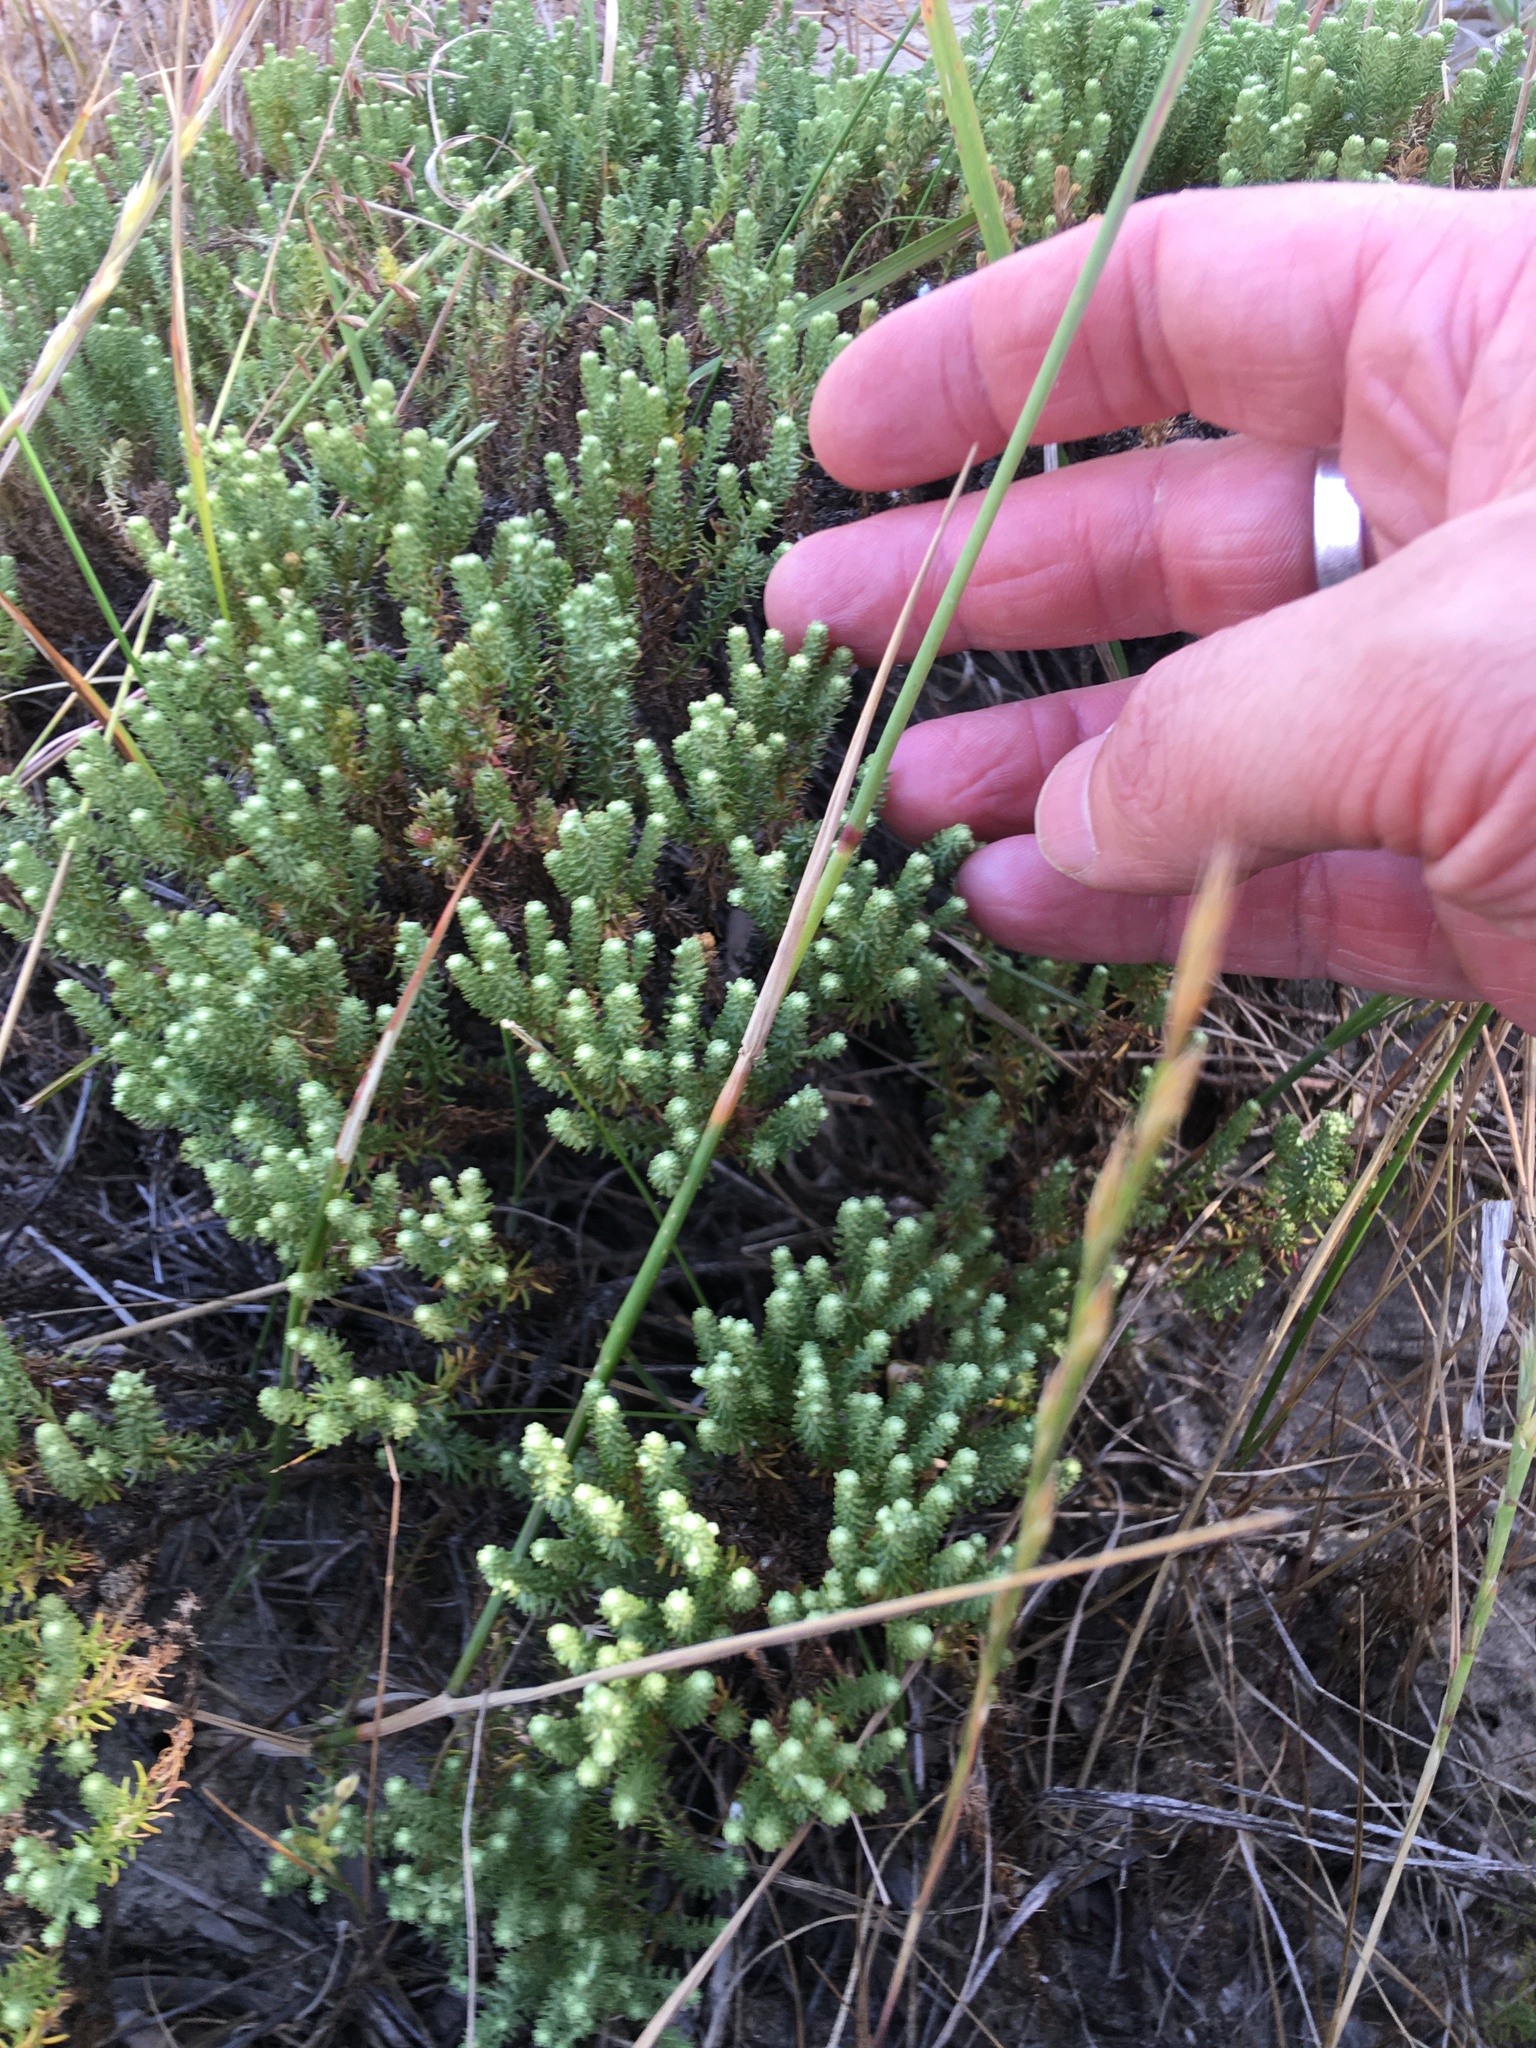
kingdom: Plantae
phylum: Tracheophyta
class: Magnoliopsida
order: Asterales
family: Asteraceae
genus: Helichrysum
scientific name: Helichrysum niveum
